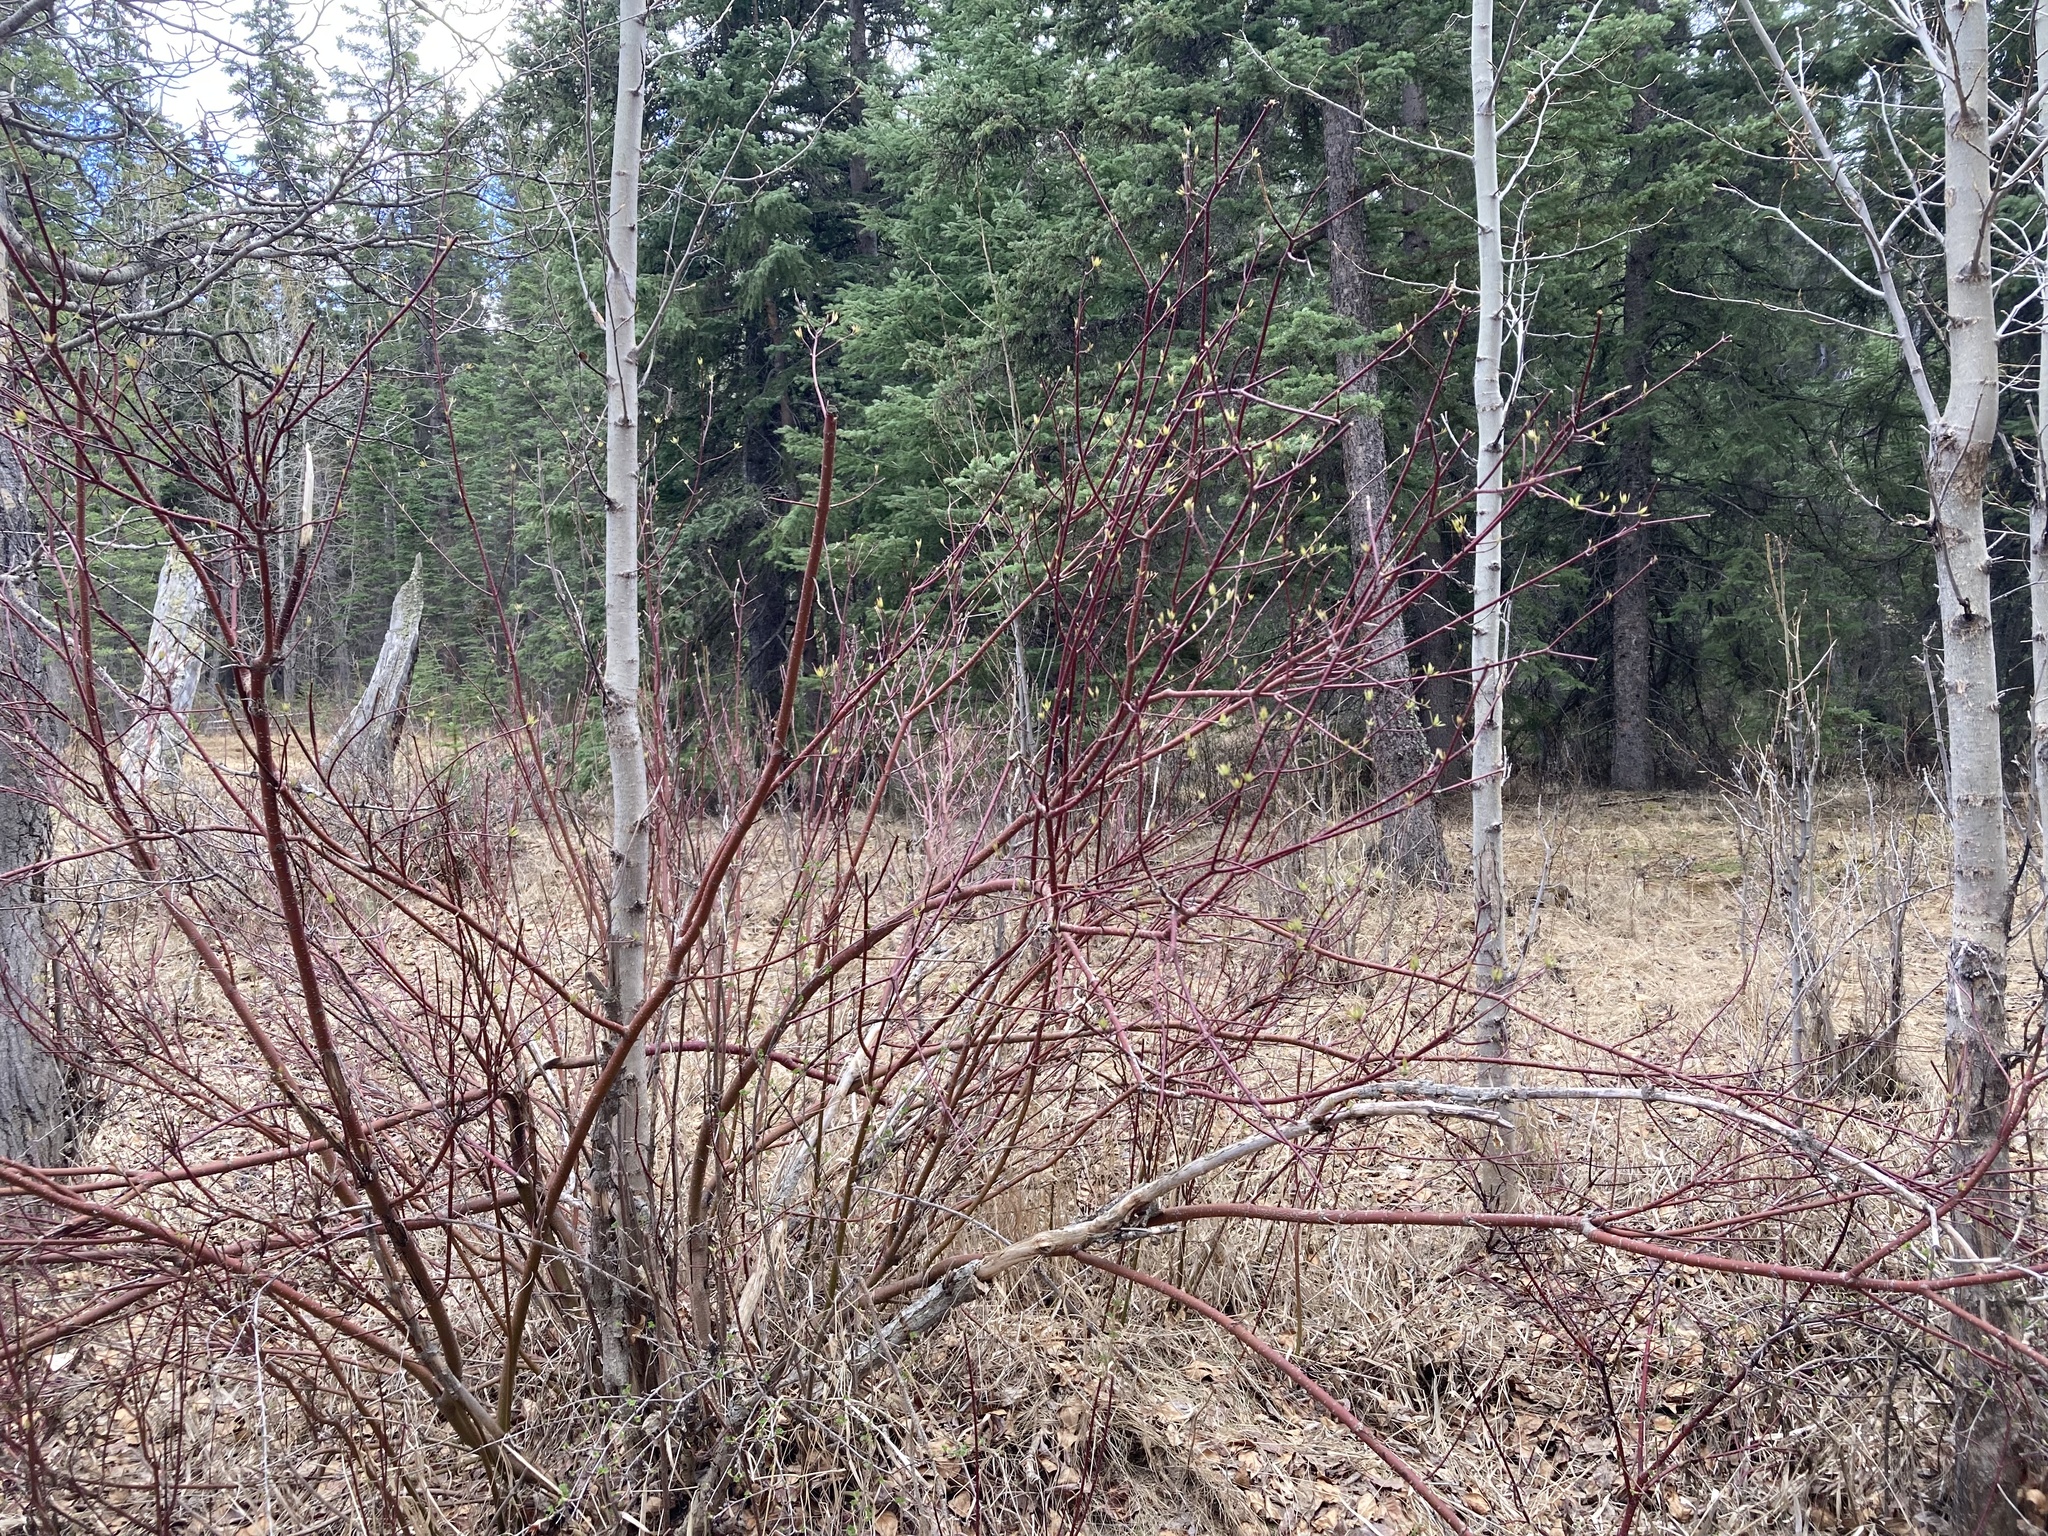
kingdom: Plantae
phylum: Tracheophyta
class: Magnoliopsida
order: Cornales
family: Cornaceae
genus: Cornus
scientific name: Cornus sericea
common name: Red-osier dogwood
